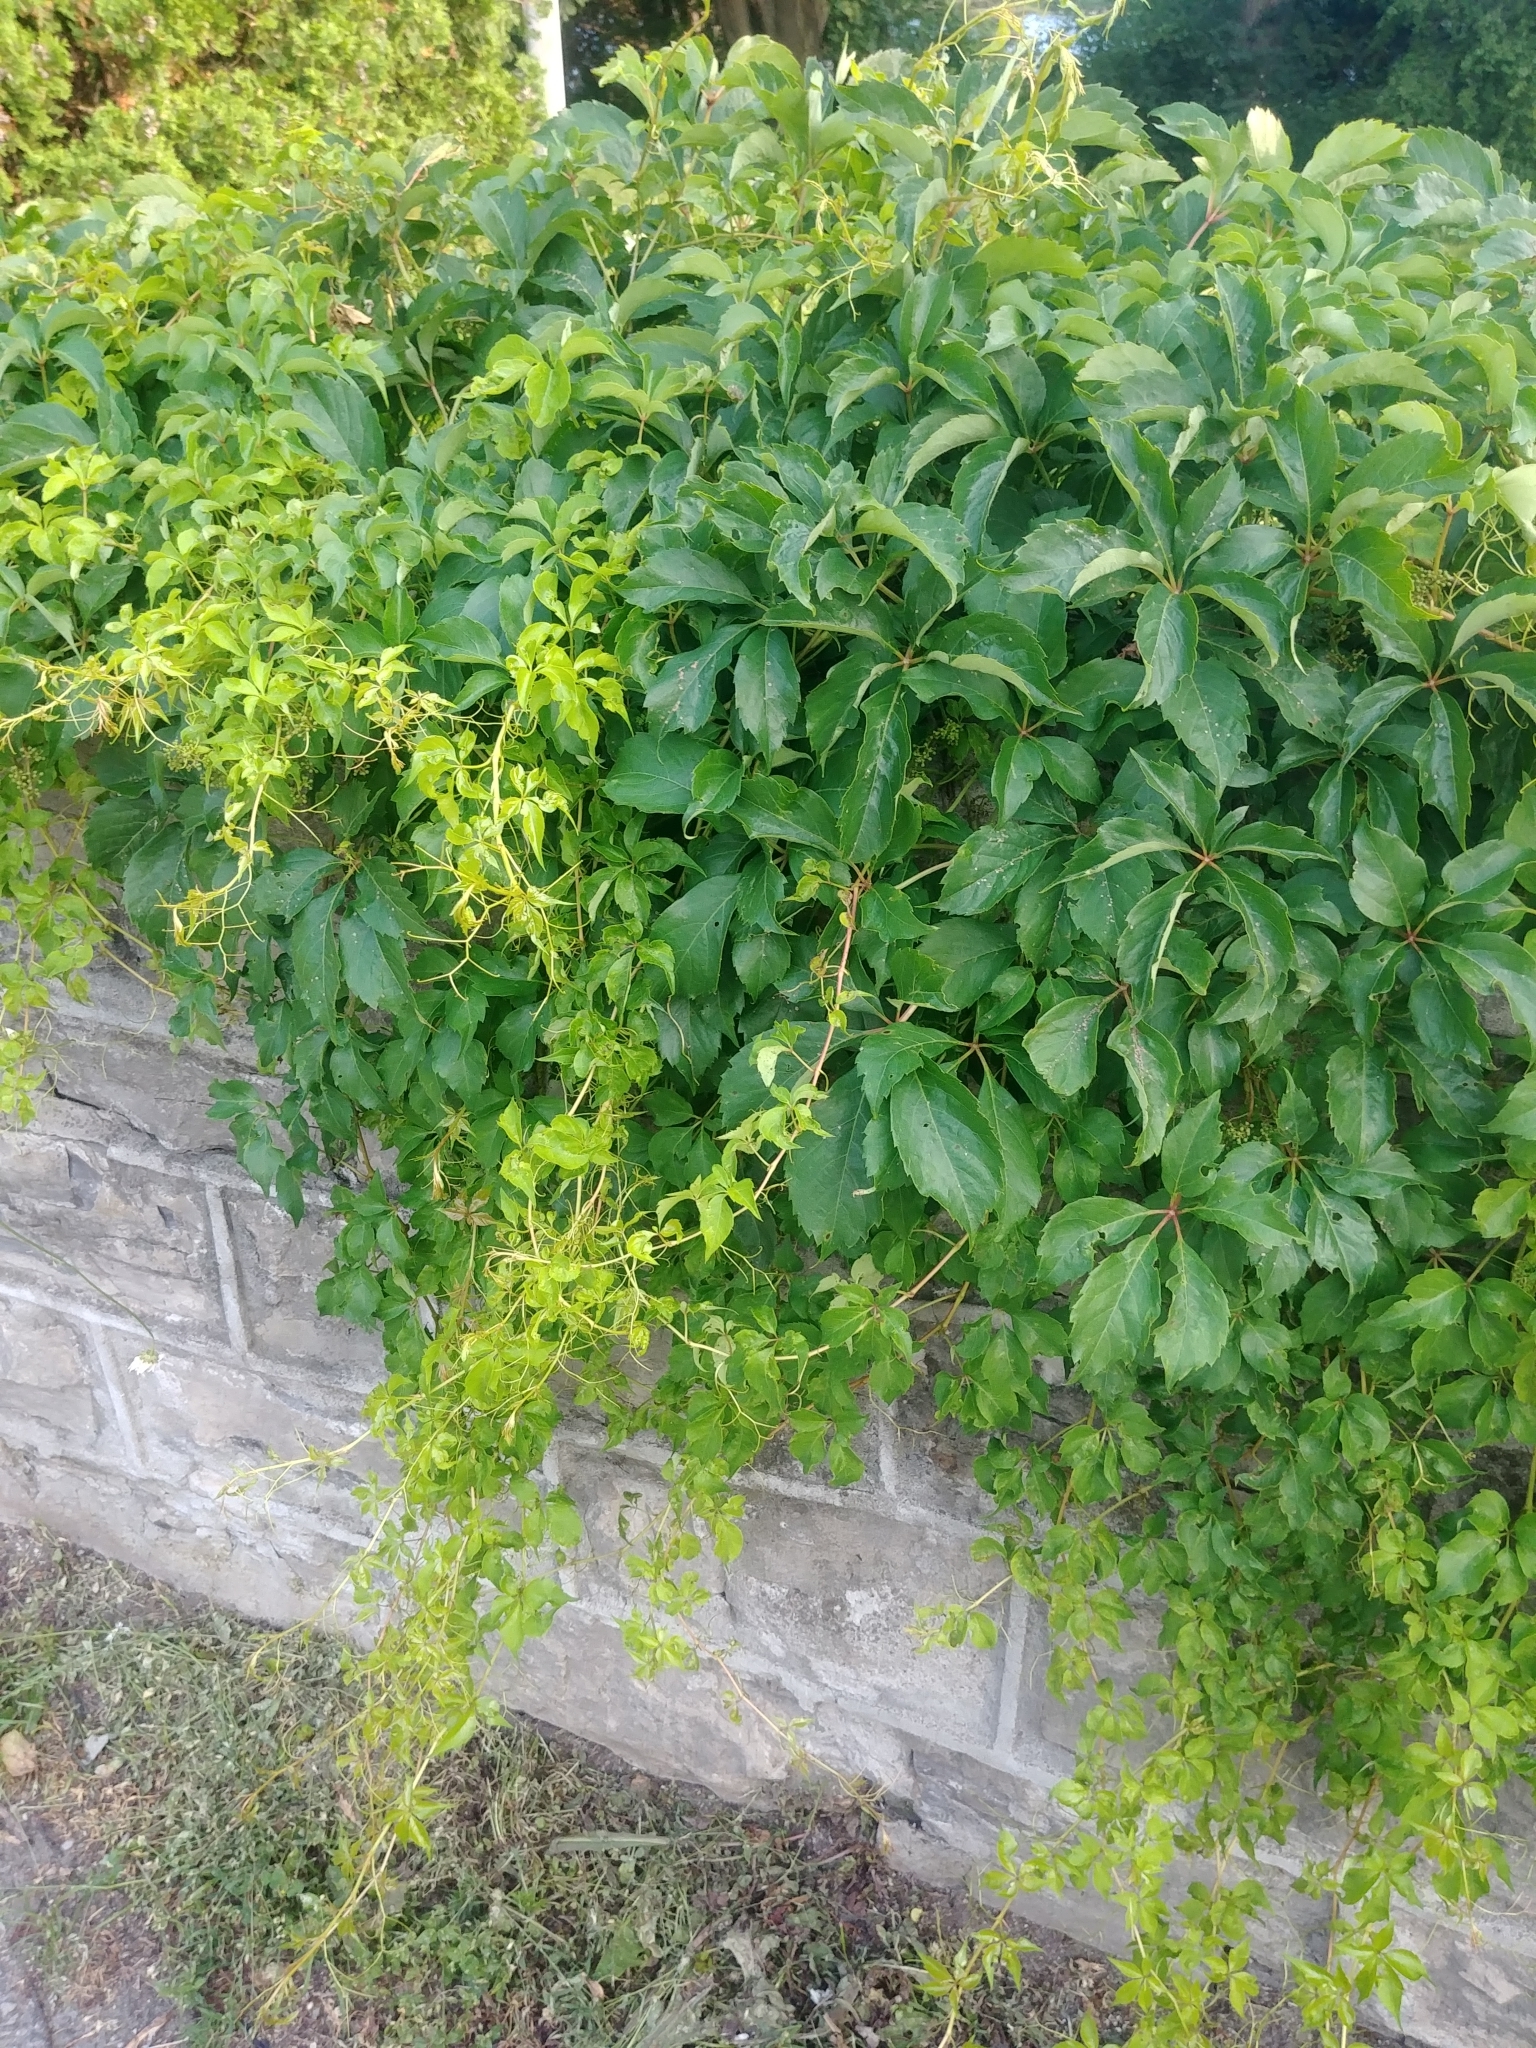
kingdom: Plantae
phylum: Tracheophyta
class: Magnoliopsida
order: Vitales
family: Vitaceae
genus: Parthenocissus
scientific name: Parthenocissus quinquefolia
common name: Virginia-creeper
